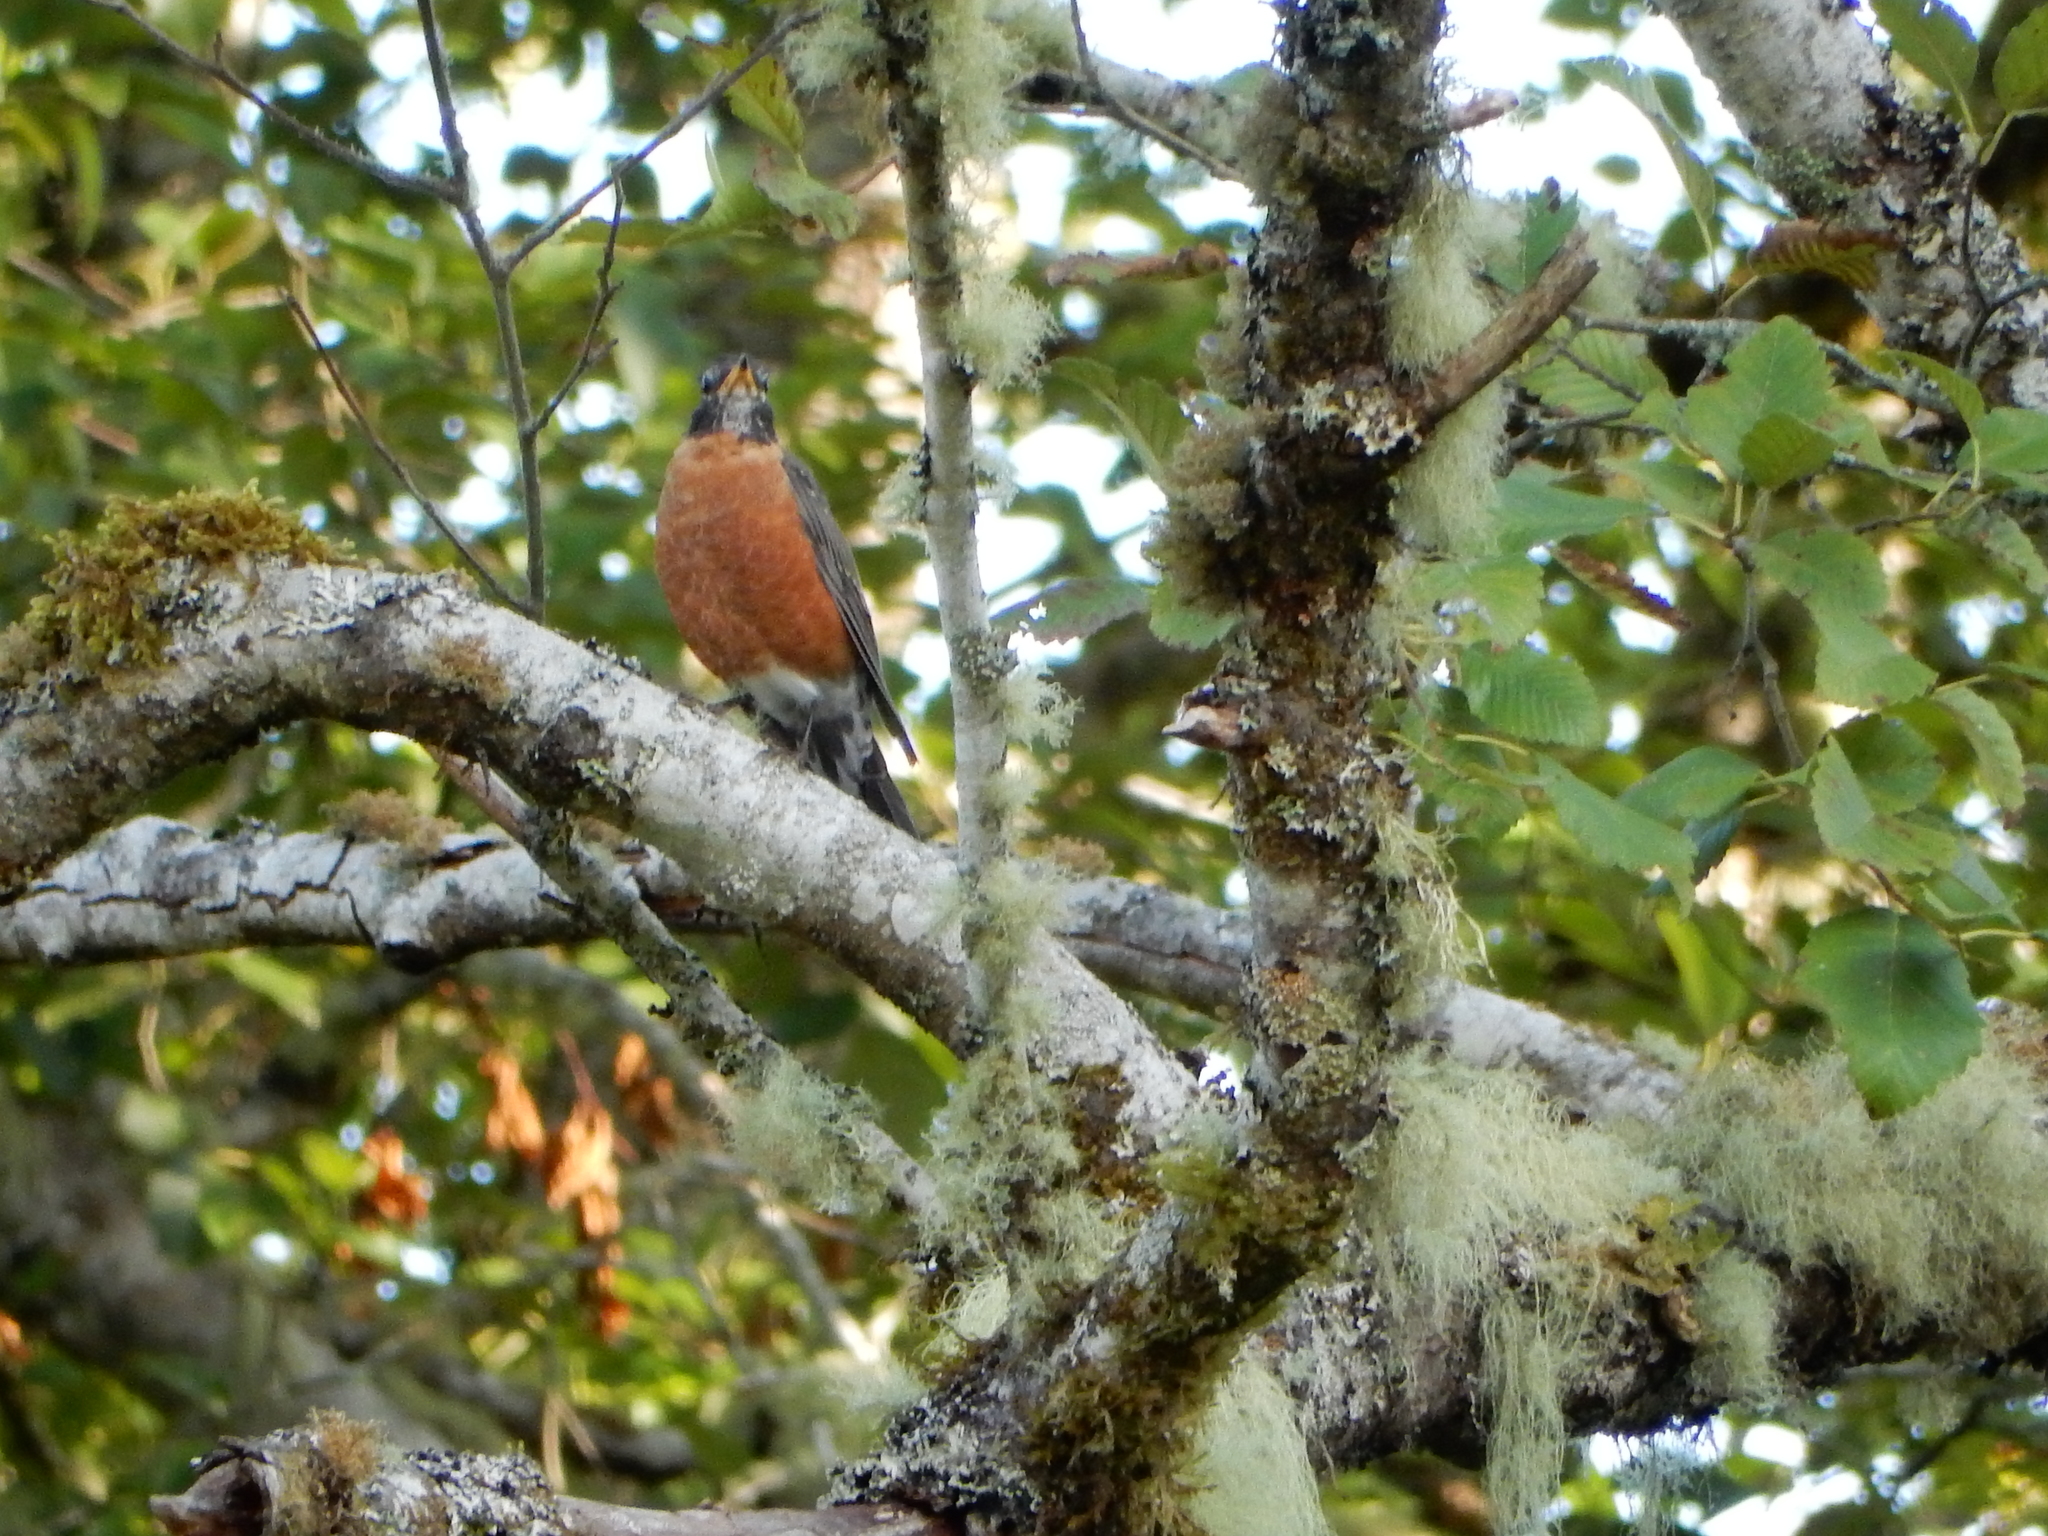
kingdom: Animalia
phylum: Chordata
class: Aves
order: Passeriformes
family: Turdidae
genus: Turdus
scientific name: Turdus migratorius
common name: American robin
